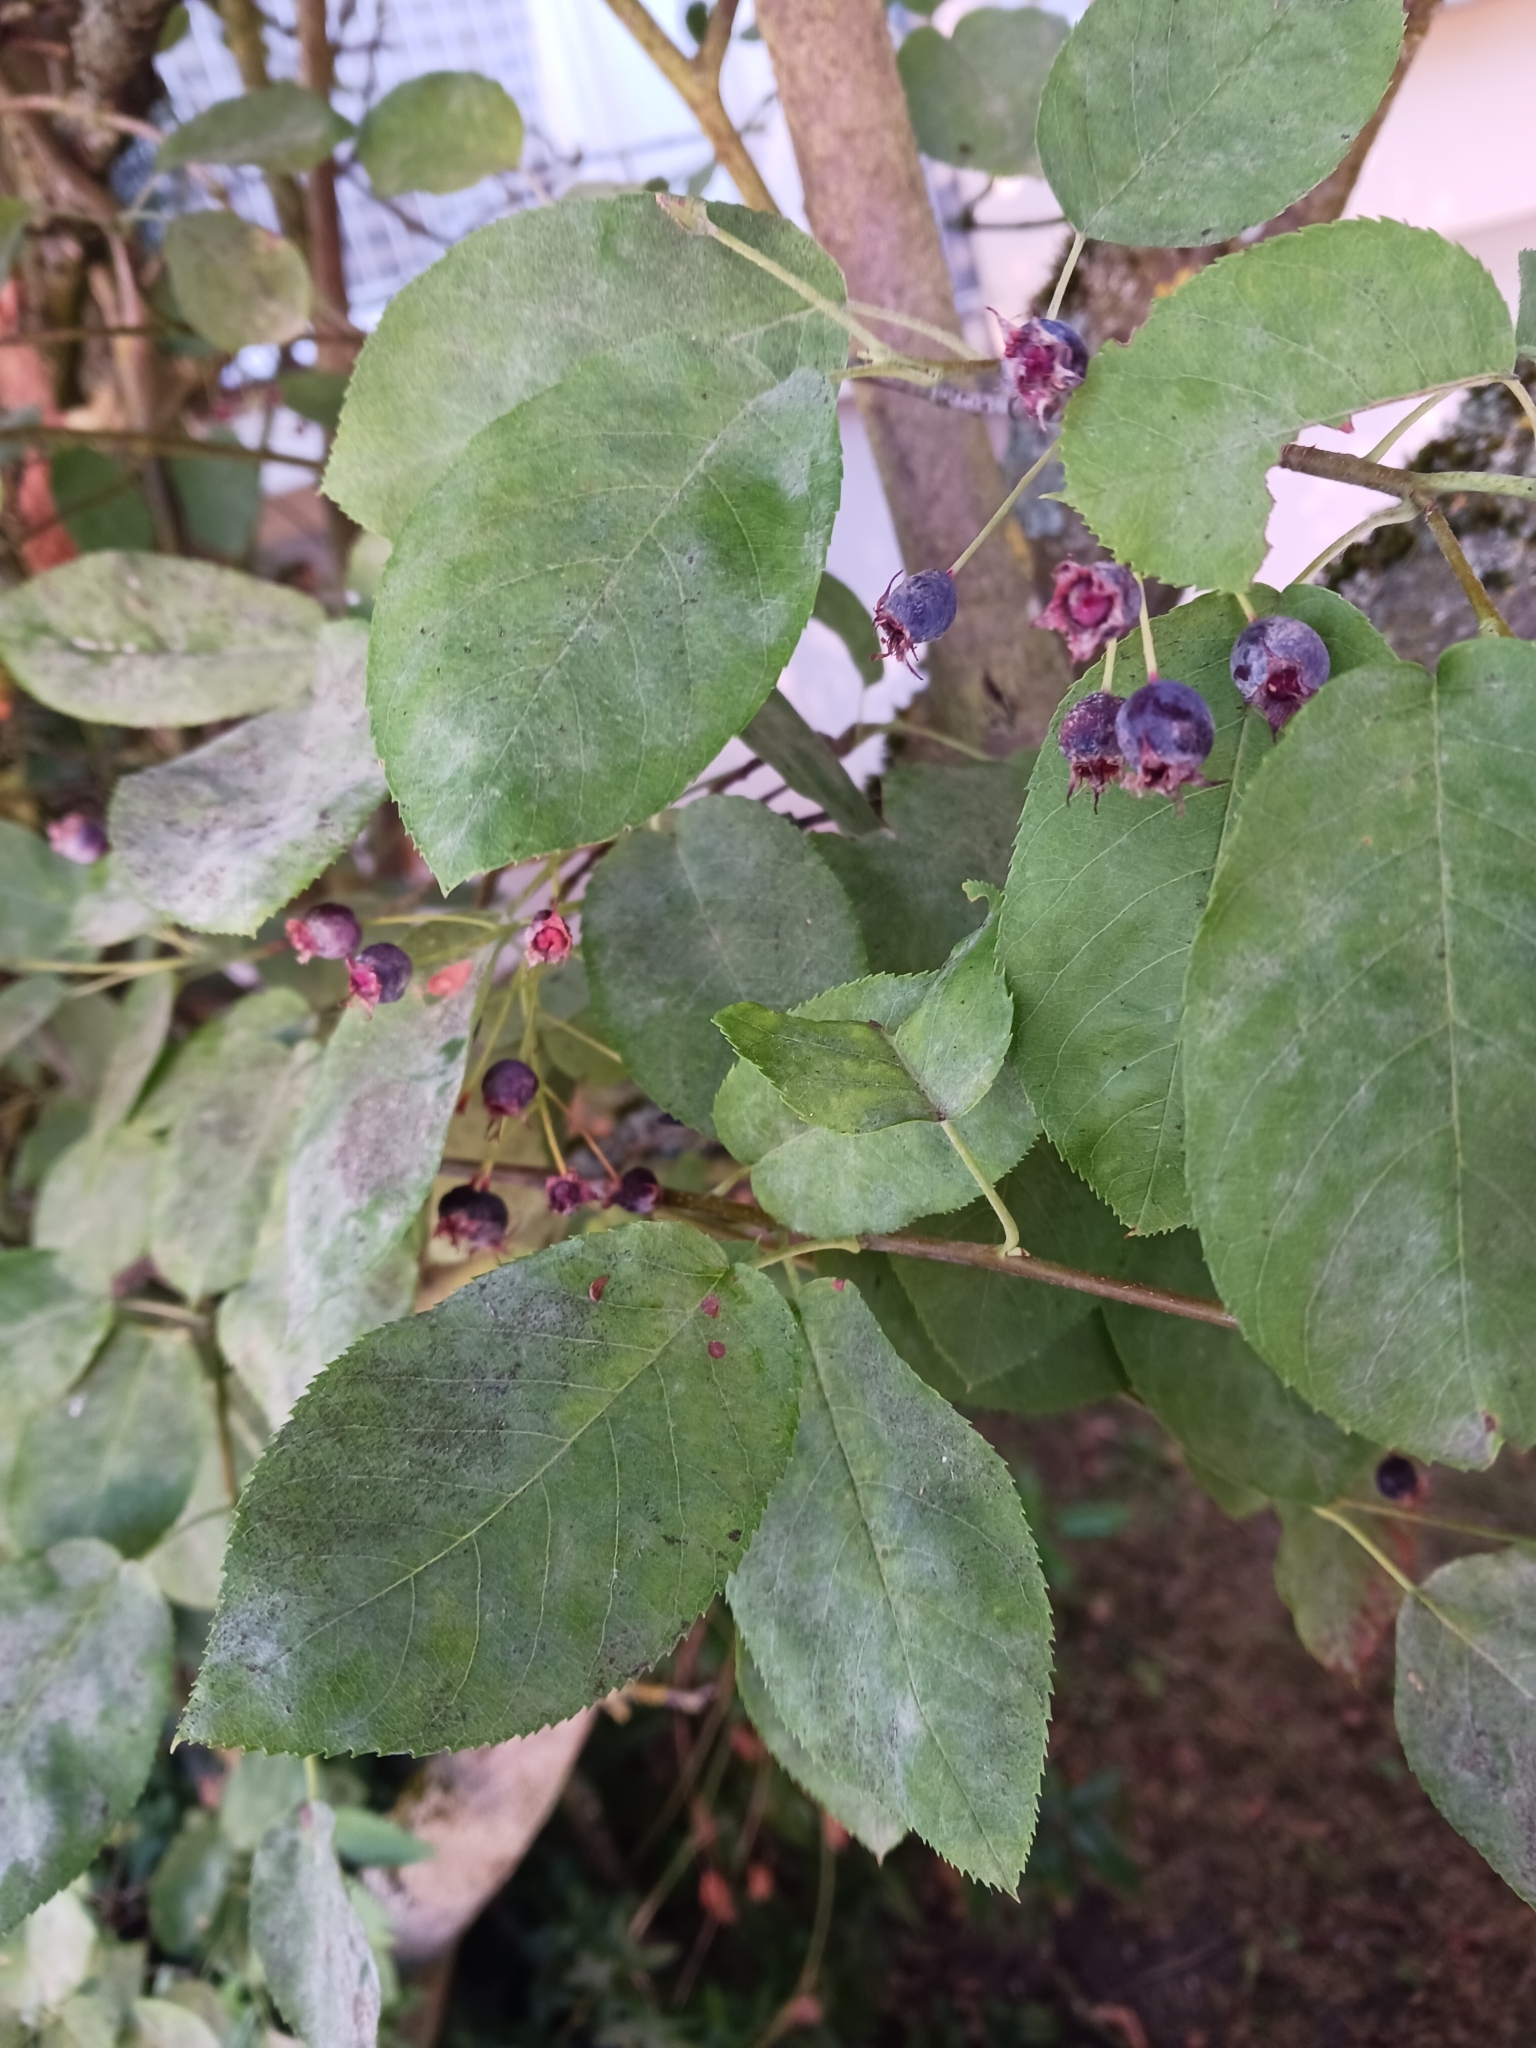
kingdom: Fungi
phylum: Ascomycota
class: Leotiomycetes
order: Helotiales
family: Erysiphaceae
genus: Podosphaera
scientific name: Podosphaera amelanchieris
